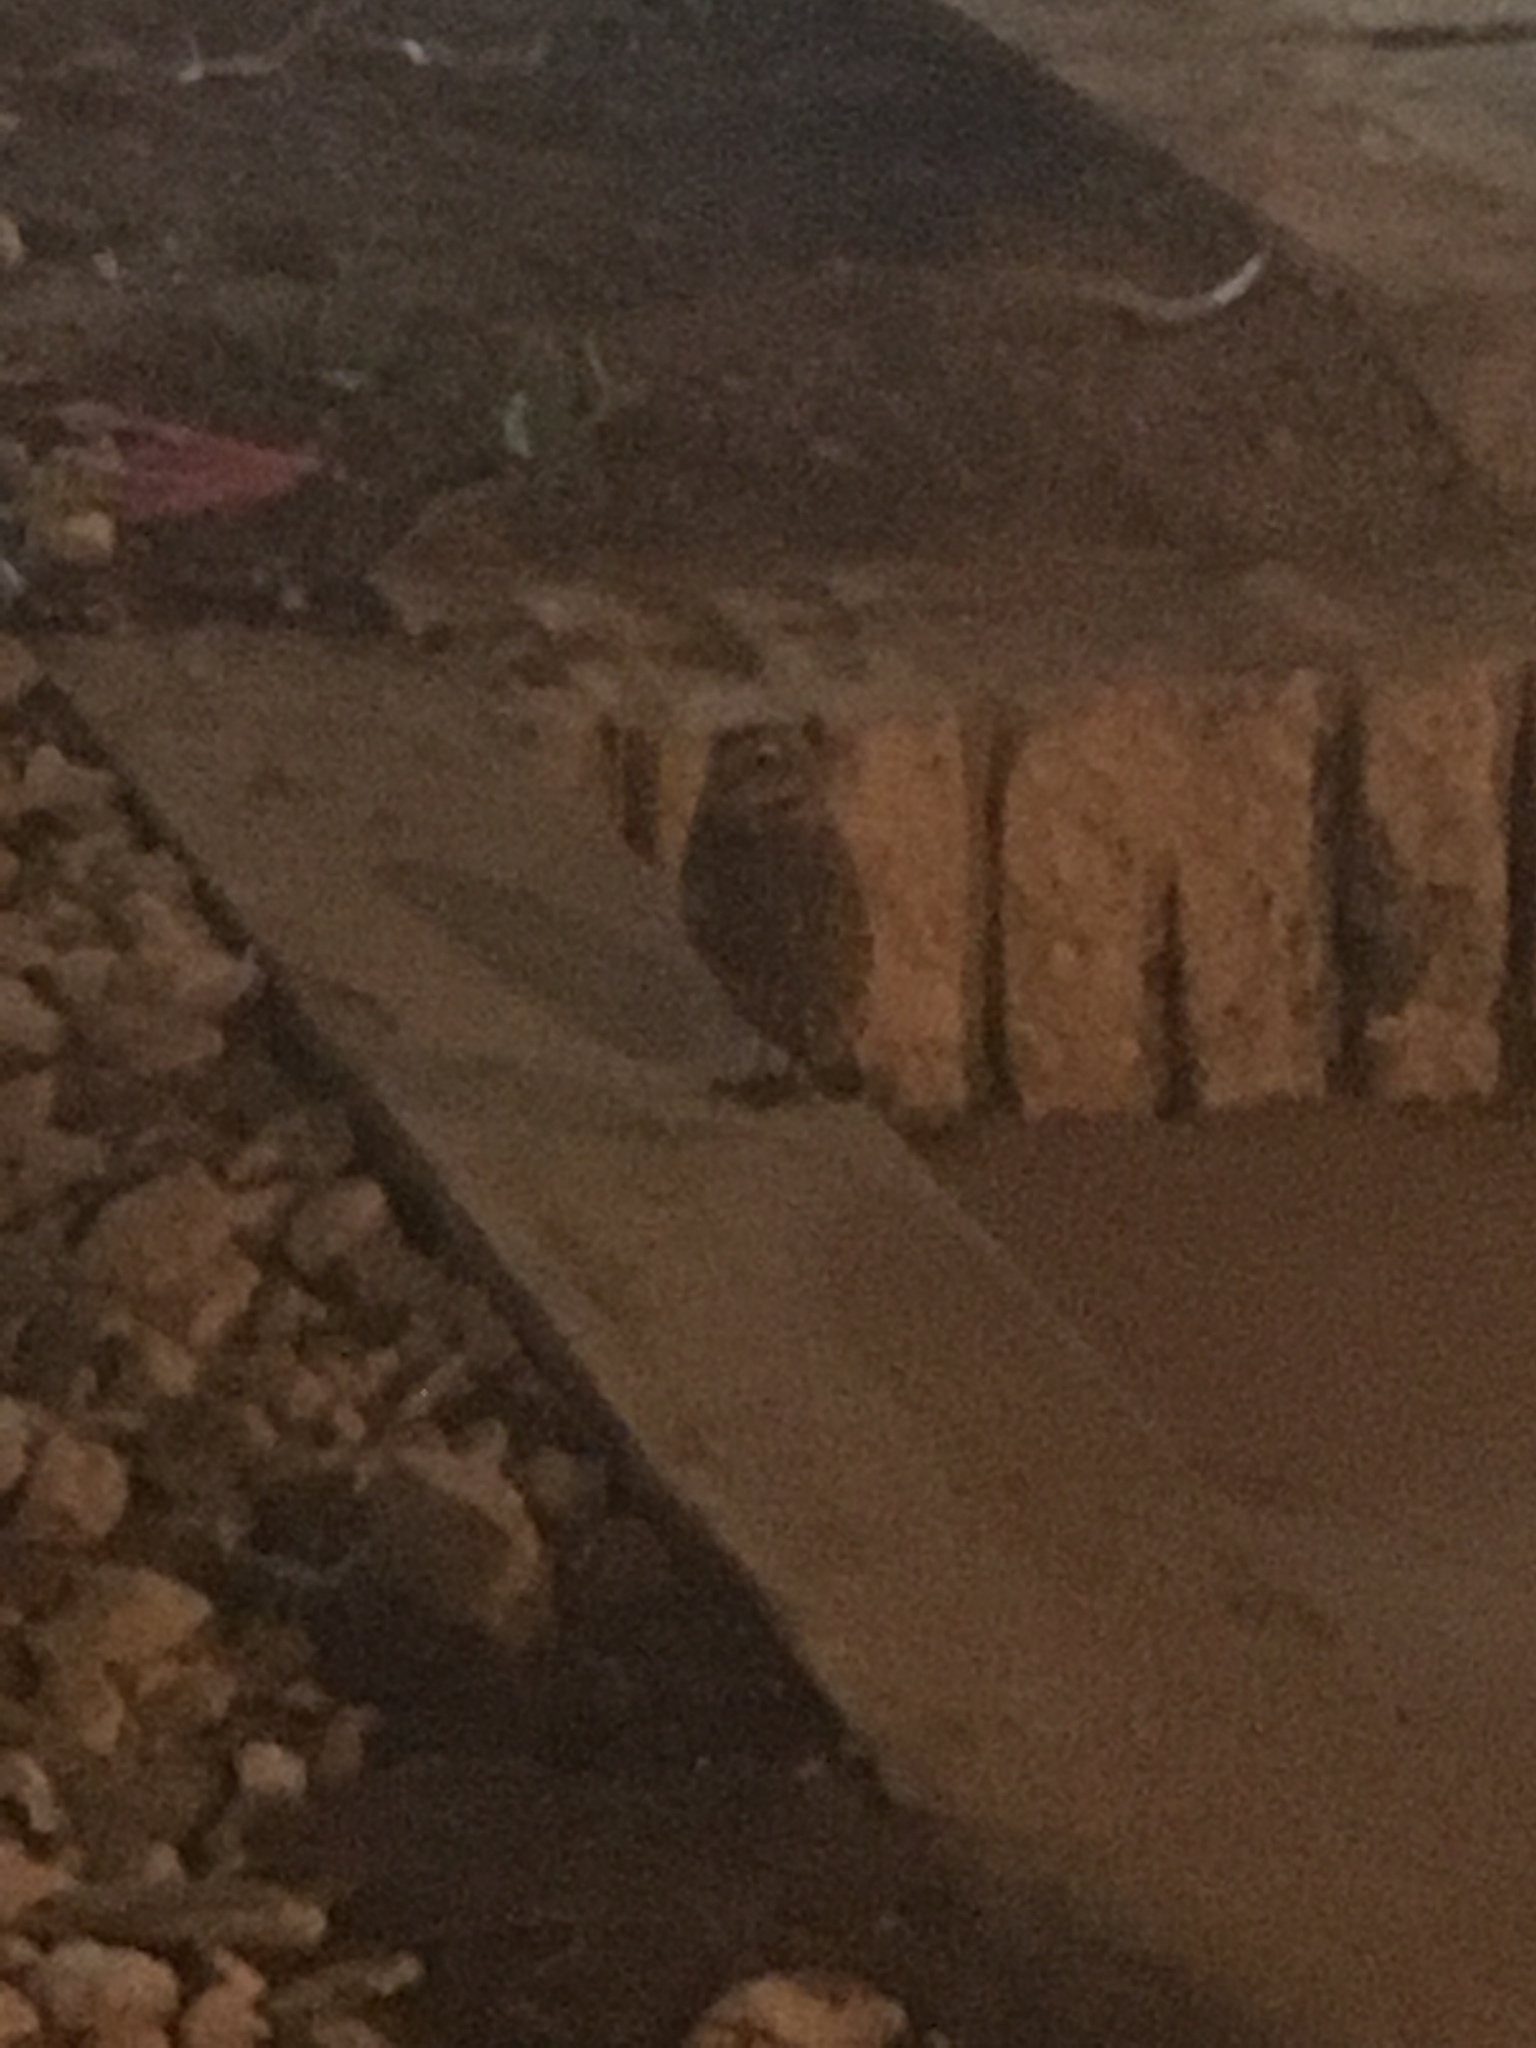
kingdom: Animalia
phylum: Chordata
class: Aves
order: Strigiformes
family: Strigidae
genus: Athene
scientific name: Athene cunicularia
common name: Burrowing owl
